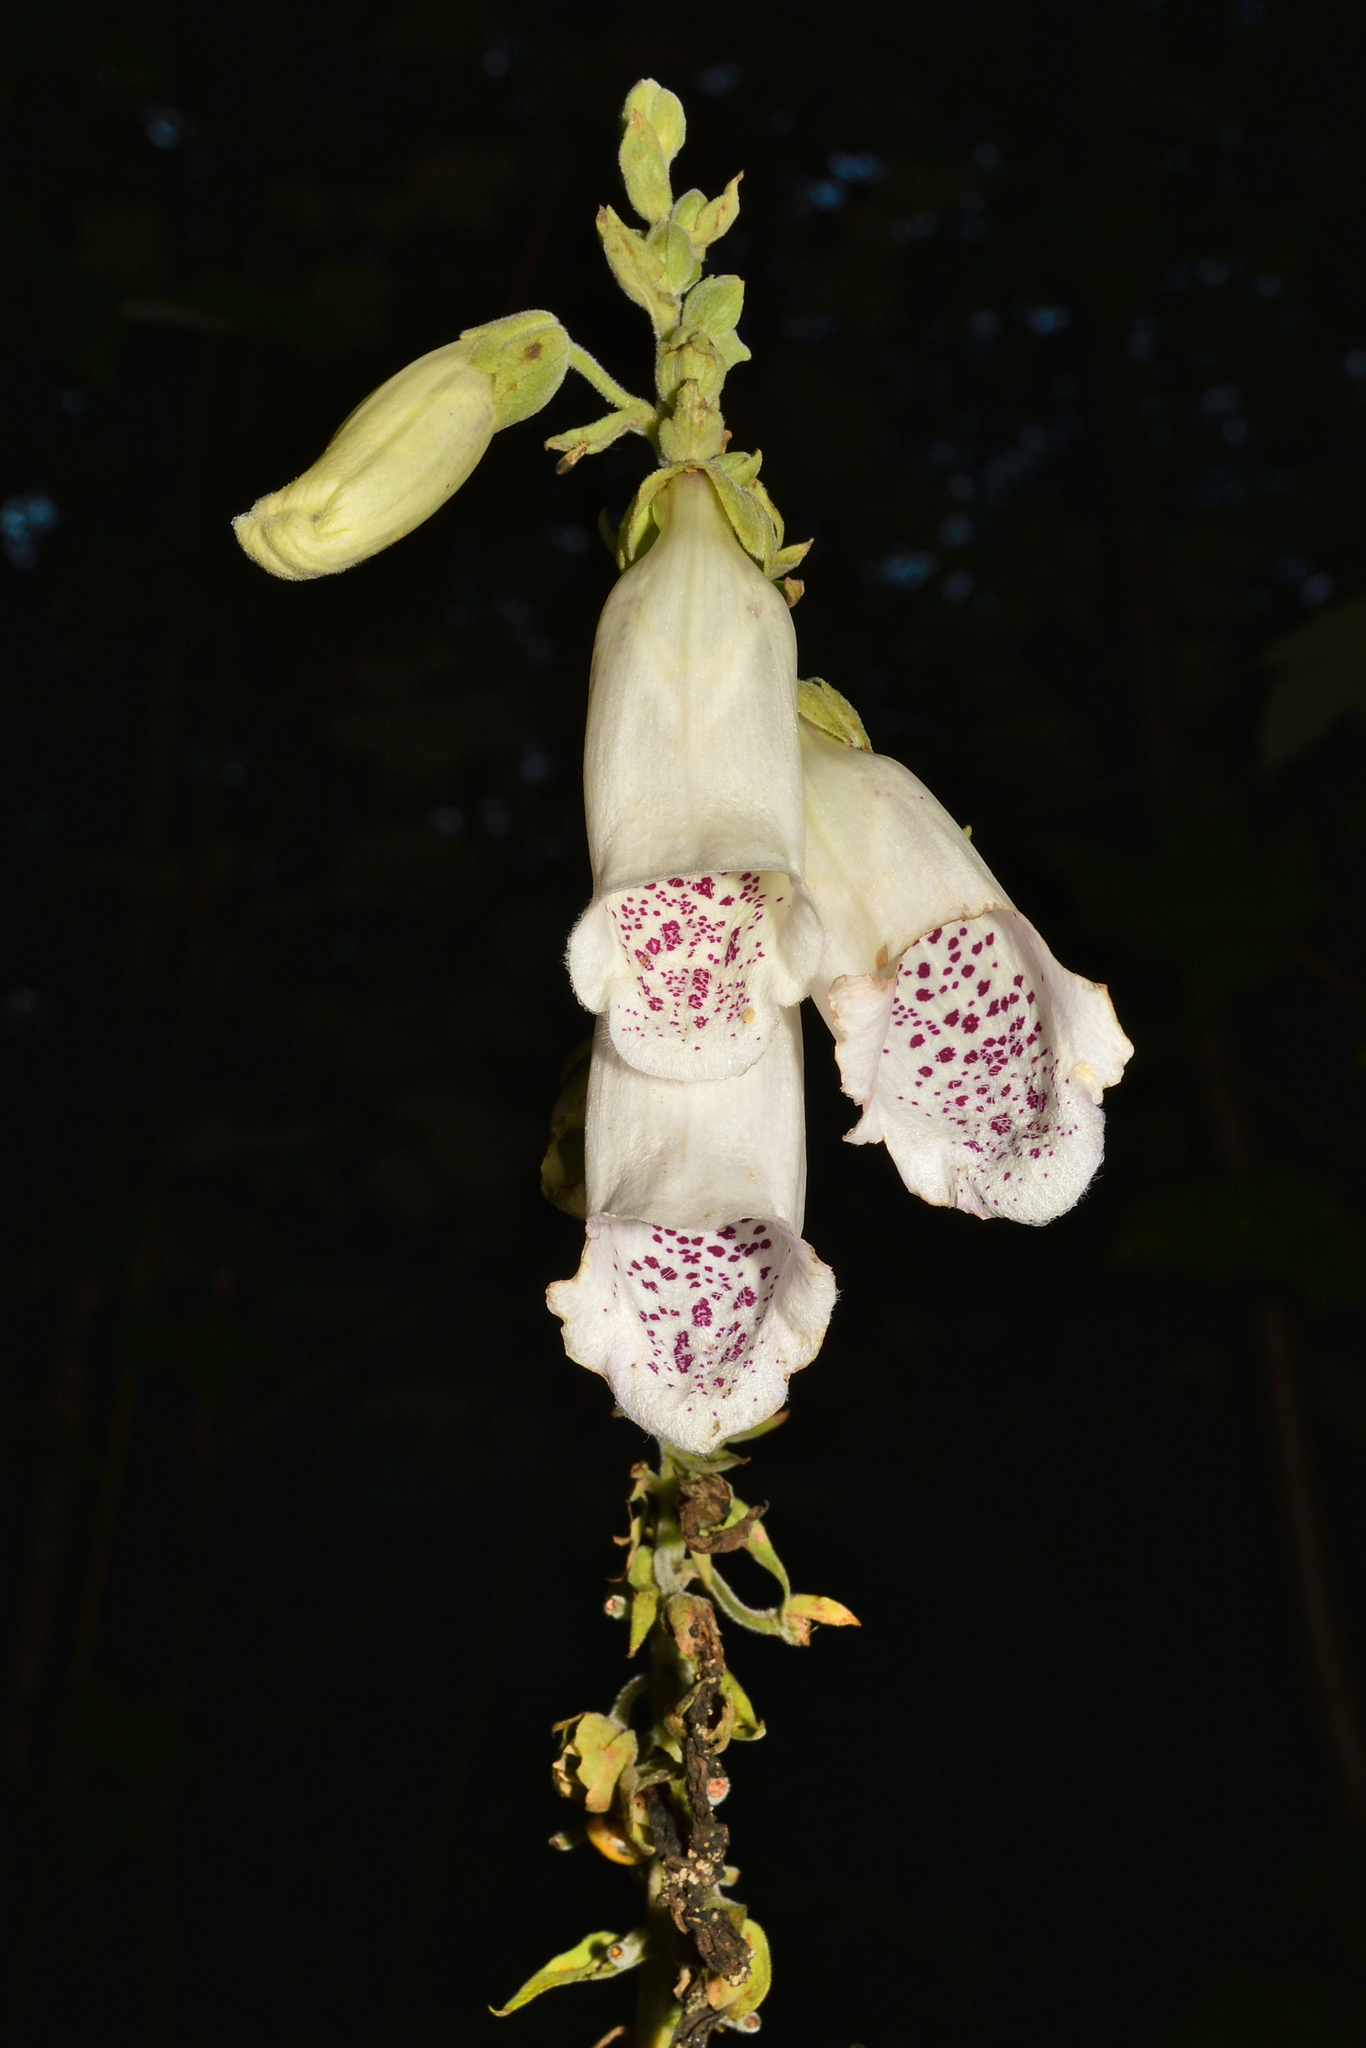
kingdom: Plantae
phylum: Tracheophyta
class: Magnoliopsida
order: Lamiales
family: Plantaginaceae
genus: Digitalis
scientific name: Digitalis purpurea
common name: Foxglove
